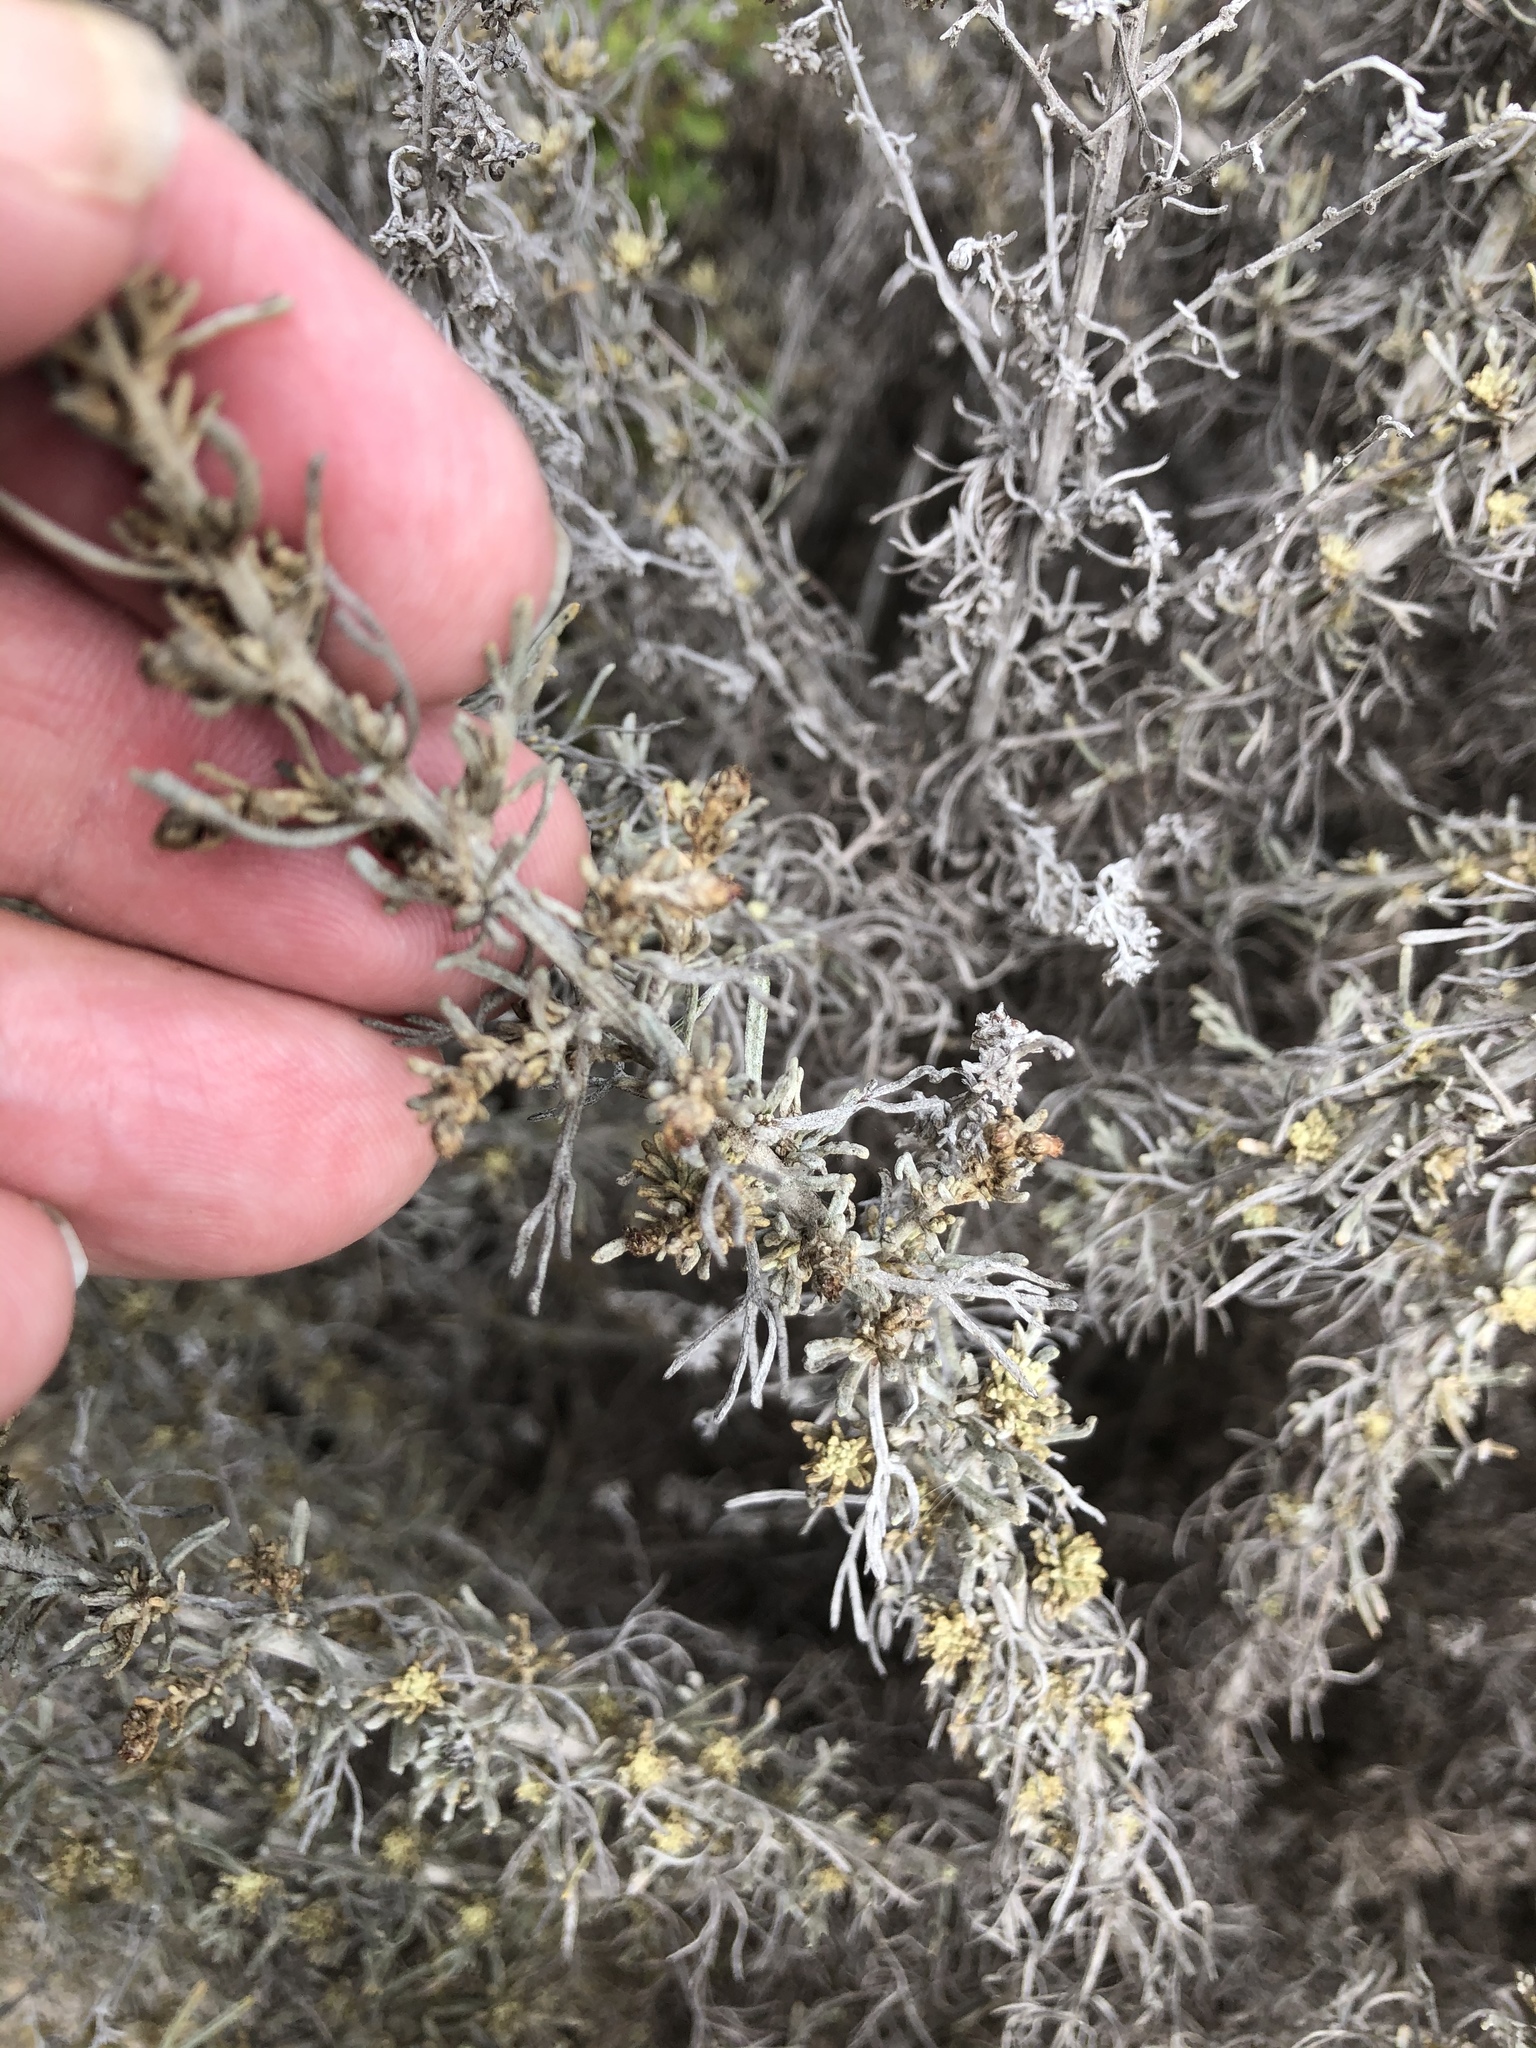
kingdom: Plantae
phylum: Tracheophyta
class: Magnoliopsida
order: Asterales
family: Asteraceae
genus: Artemisia
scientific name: Artemisia californica
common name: California sagebrush
